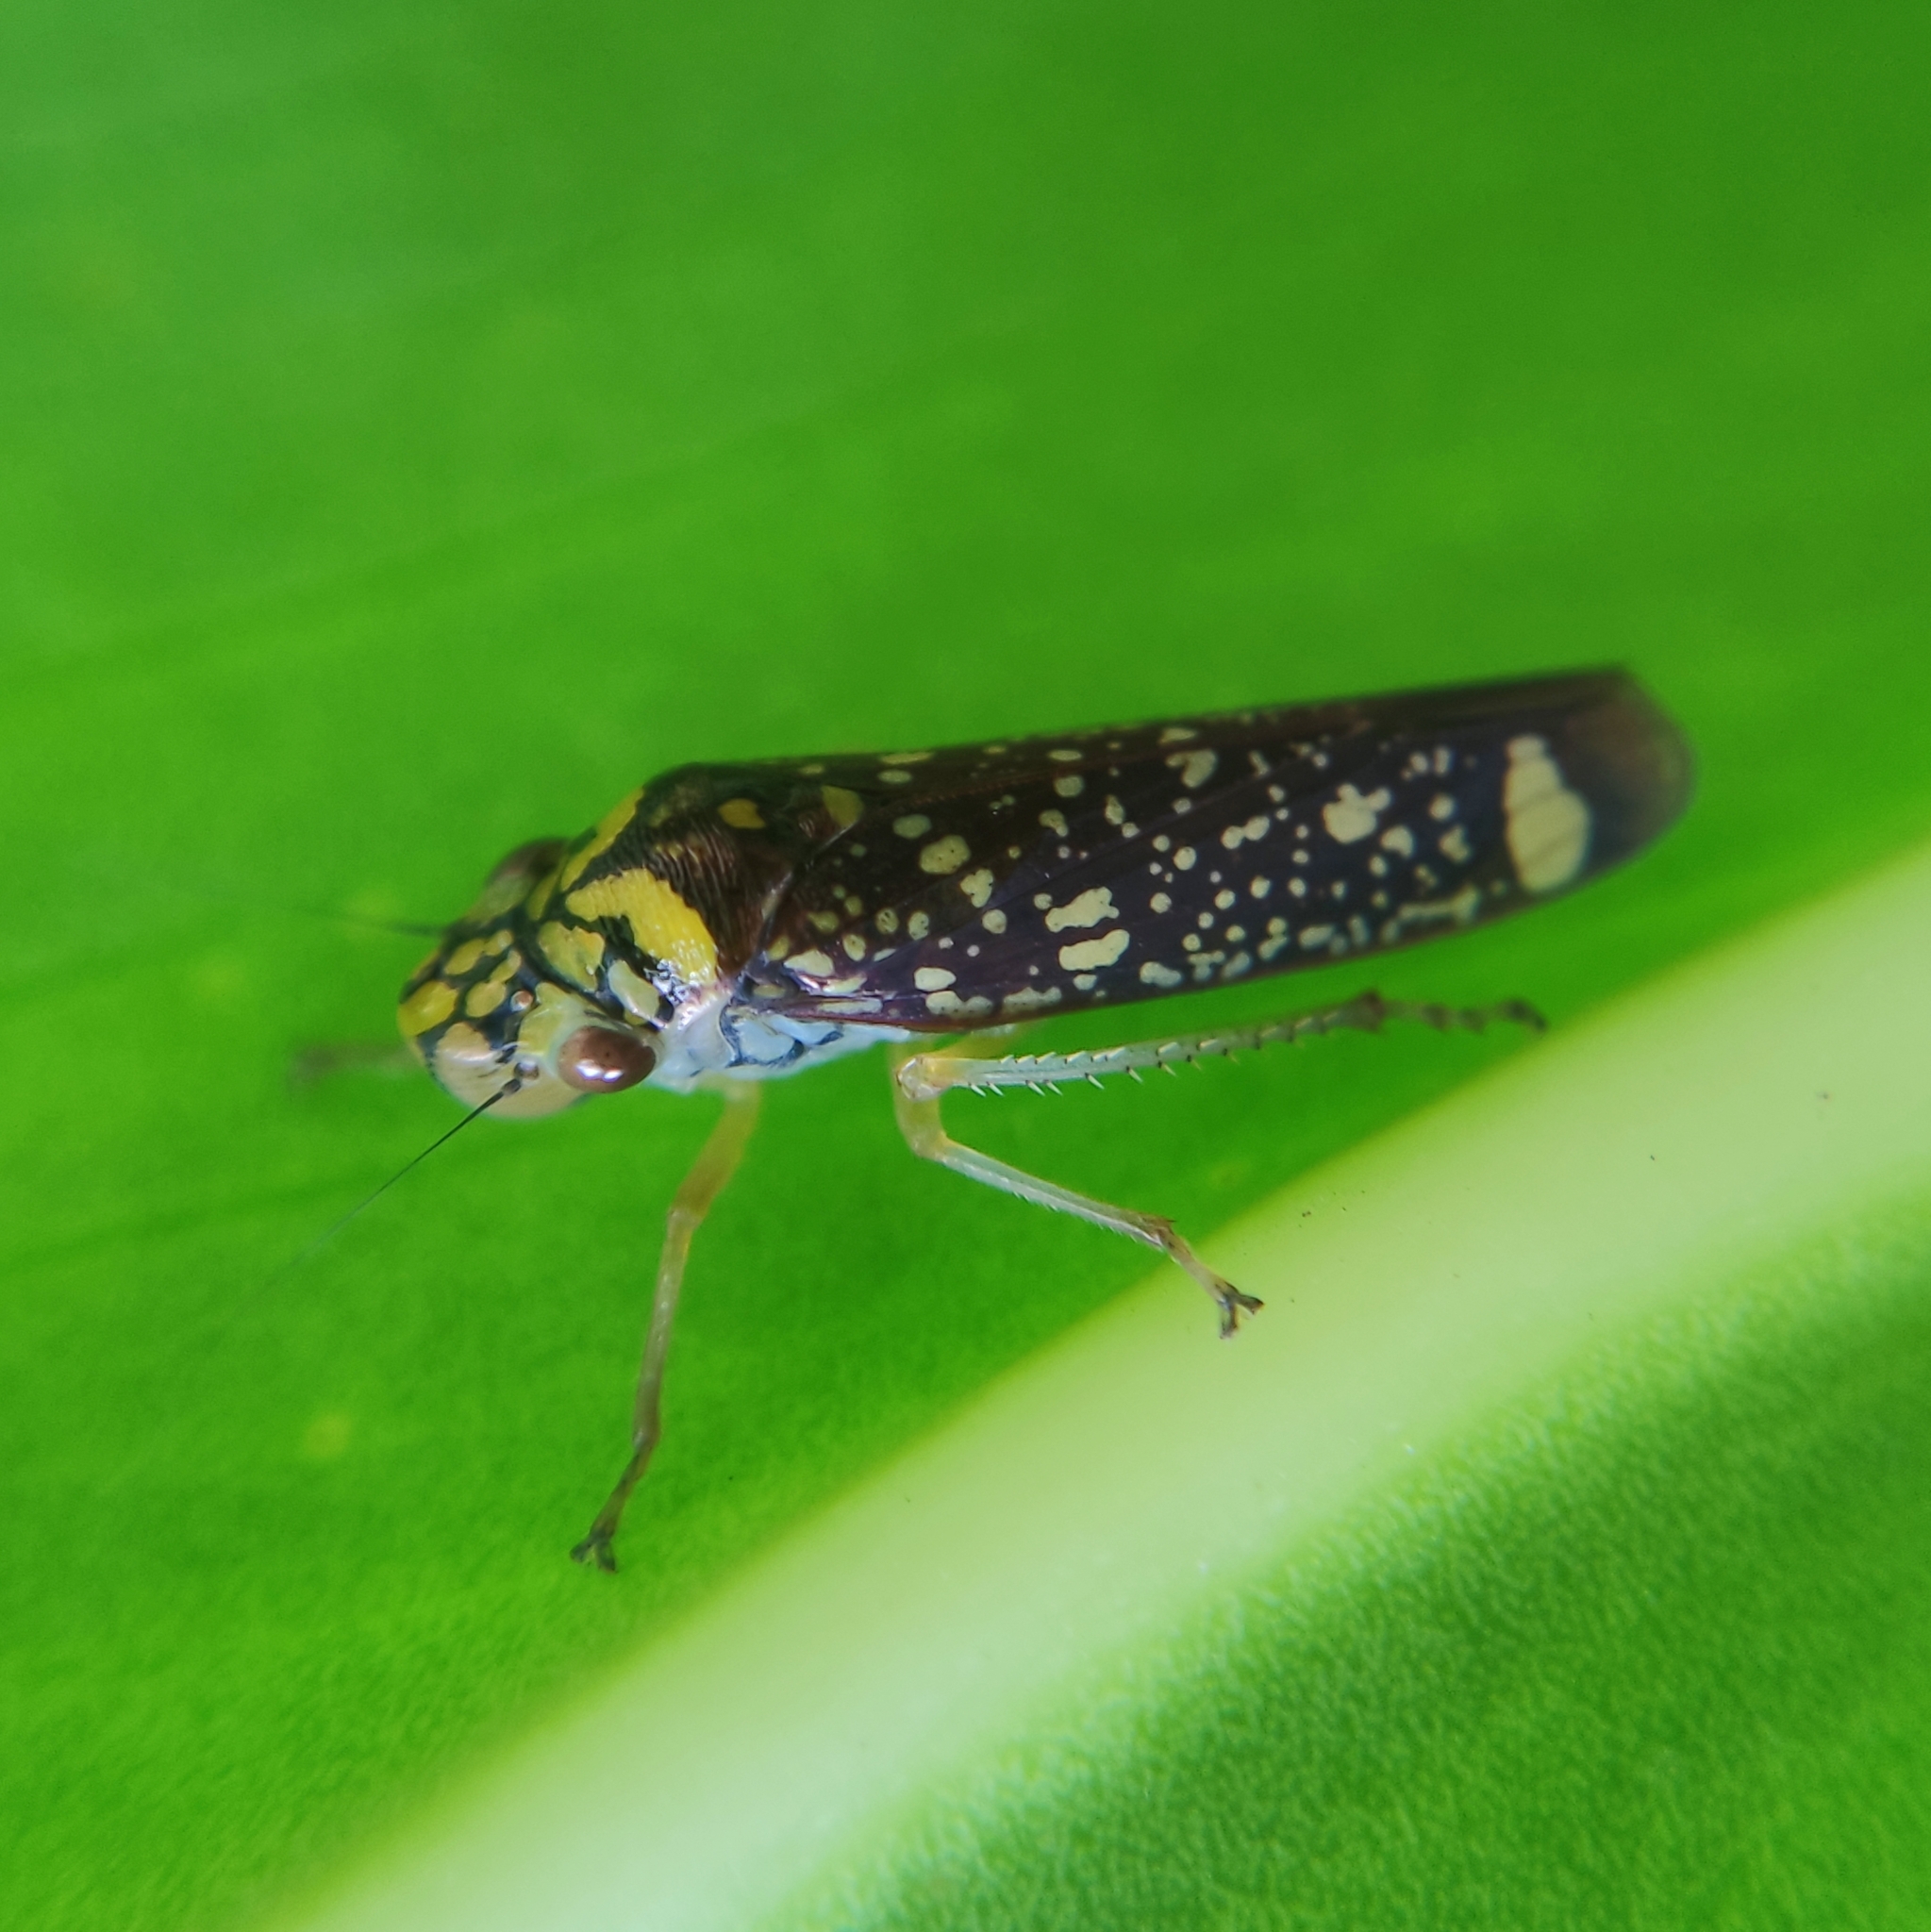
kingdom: Animalia
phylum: Arthropoda
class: Insecta
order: Hemiptera
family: Cicadellidae
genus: Aulacizes
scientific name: Aulacizes conspersa
